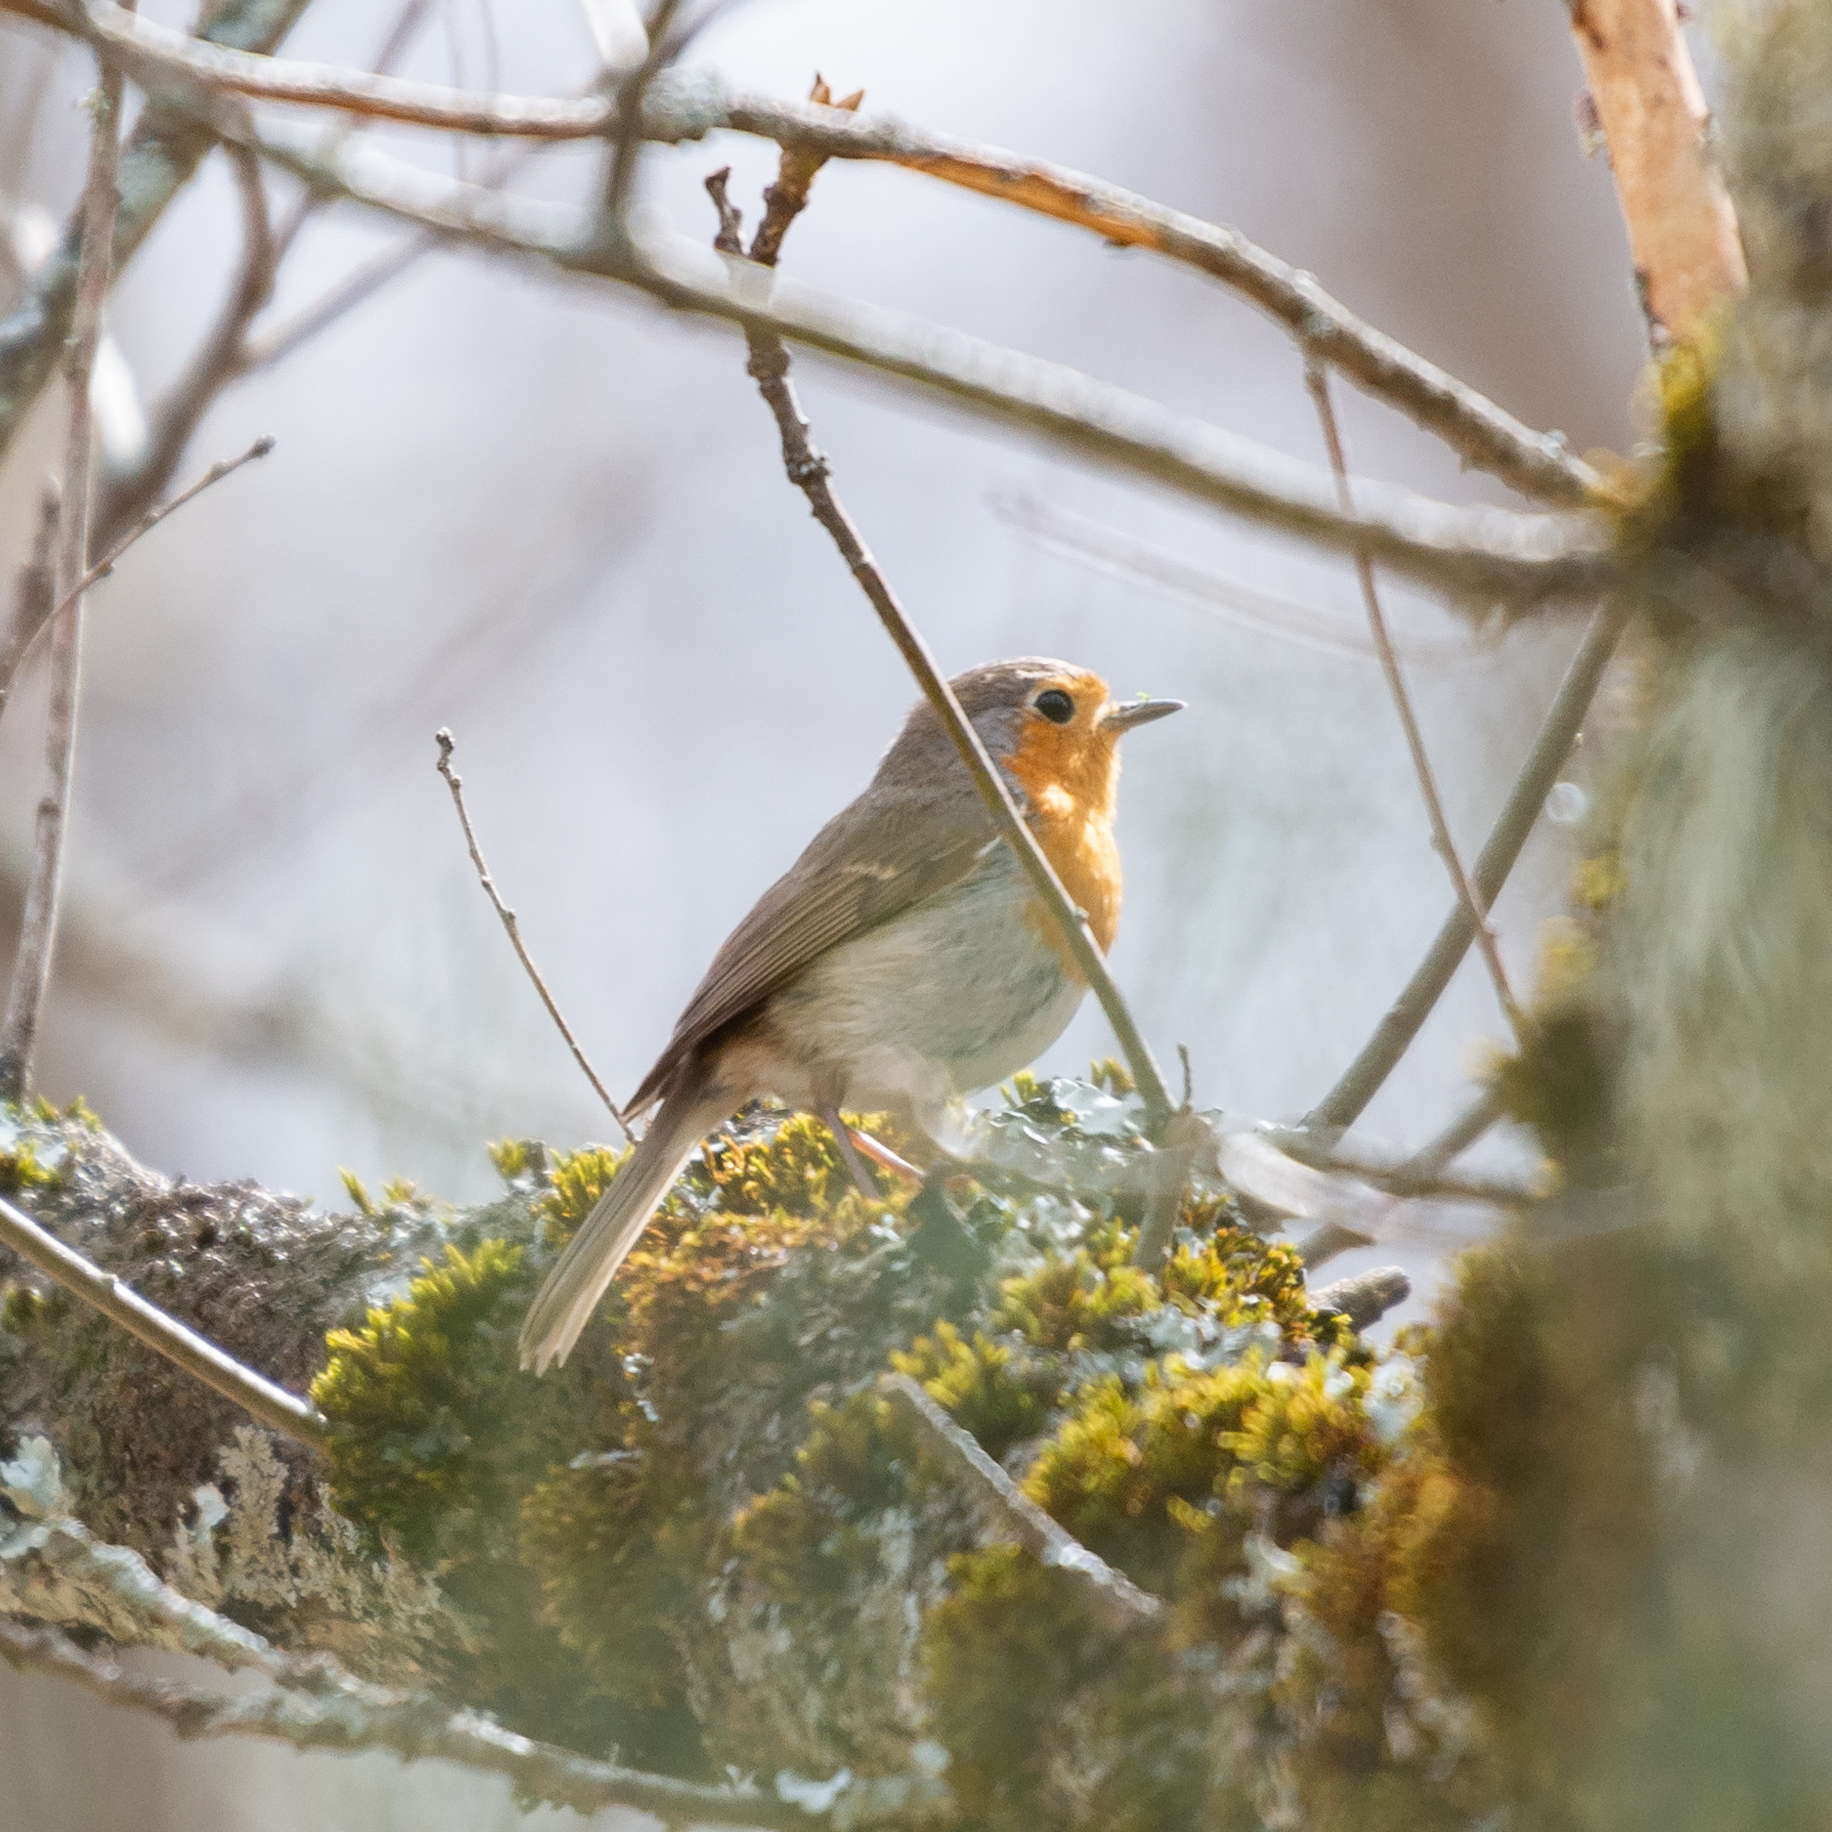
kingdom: Animalia
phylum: Chordata
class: Aves
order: Passeriformes
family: Muscicapidae
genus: Erithacus
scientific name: Erithacus rubecula
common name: European robin
